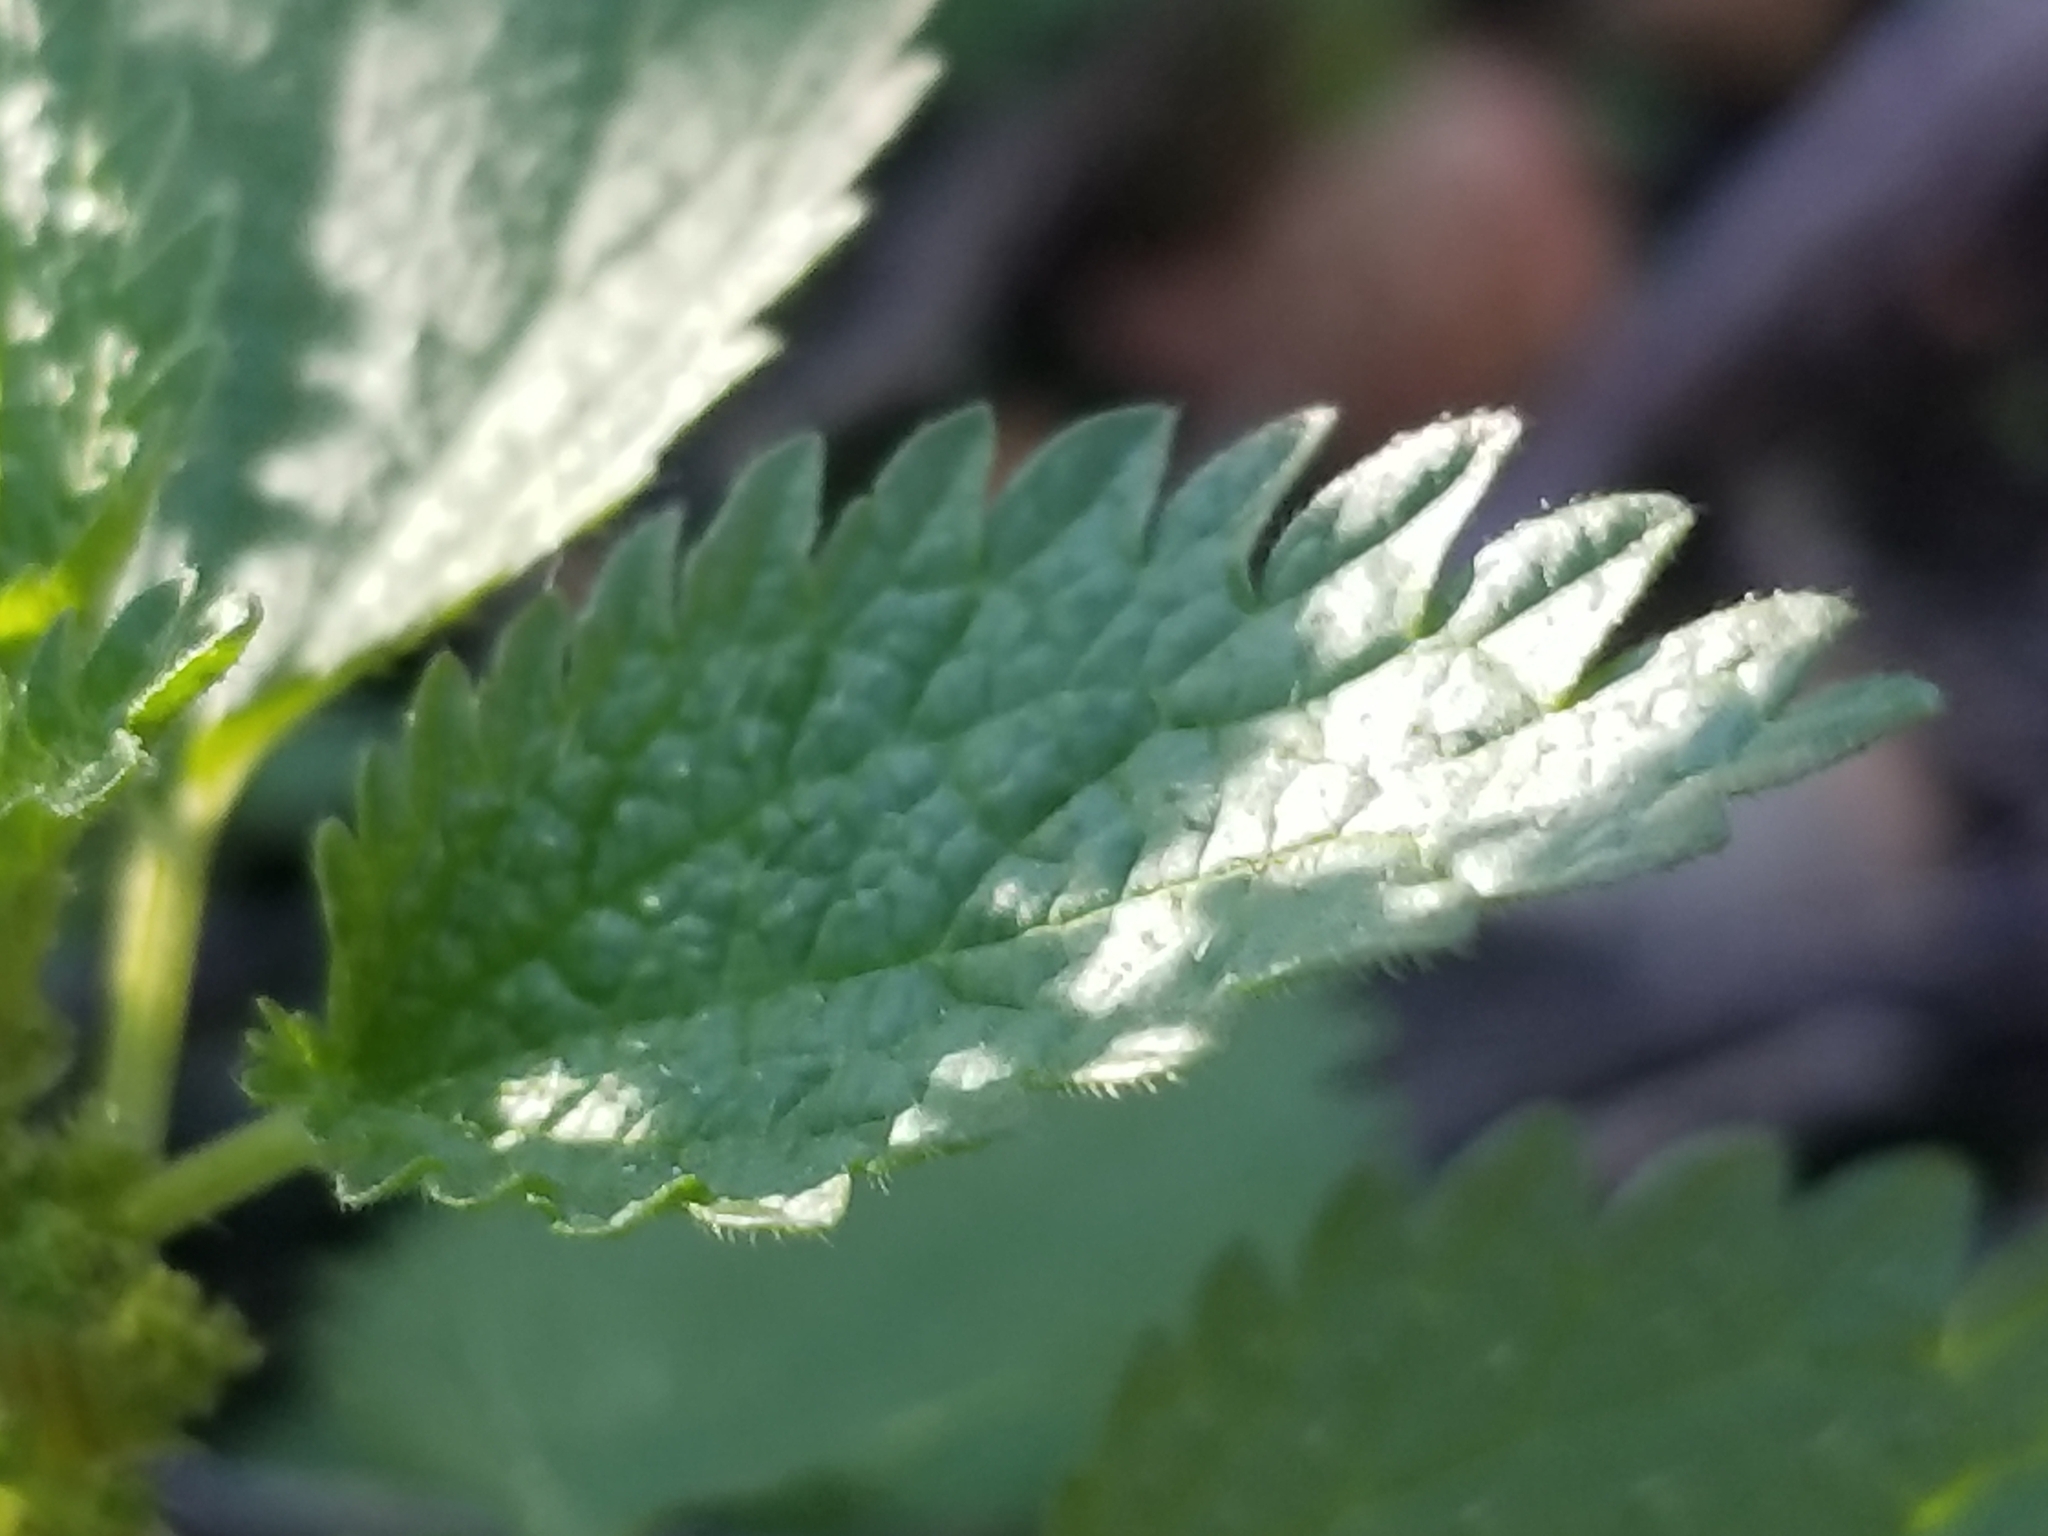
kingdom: Plantae
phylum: Tracheophyta
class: Magnoliopsida
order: Rosales
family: Urticaceae
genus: Urtica
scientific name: Urtica urens
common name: Dwarf nettle
